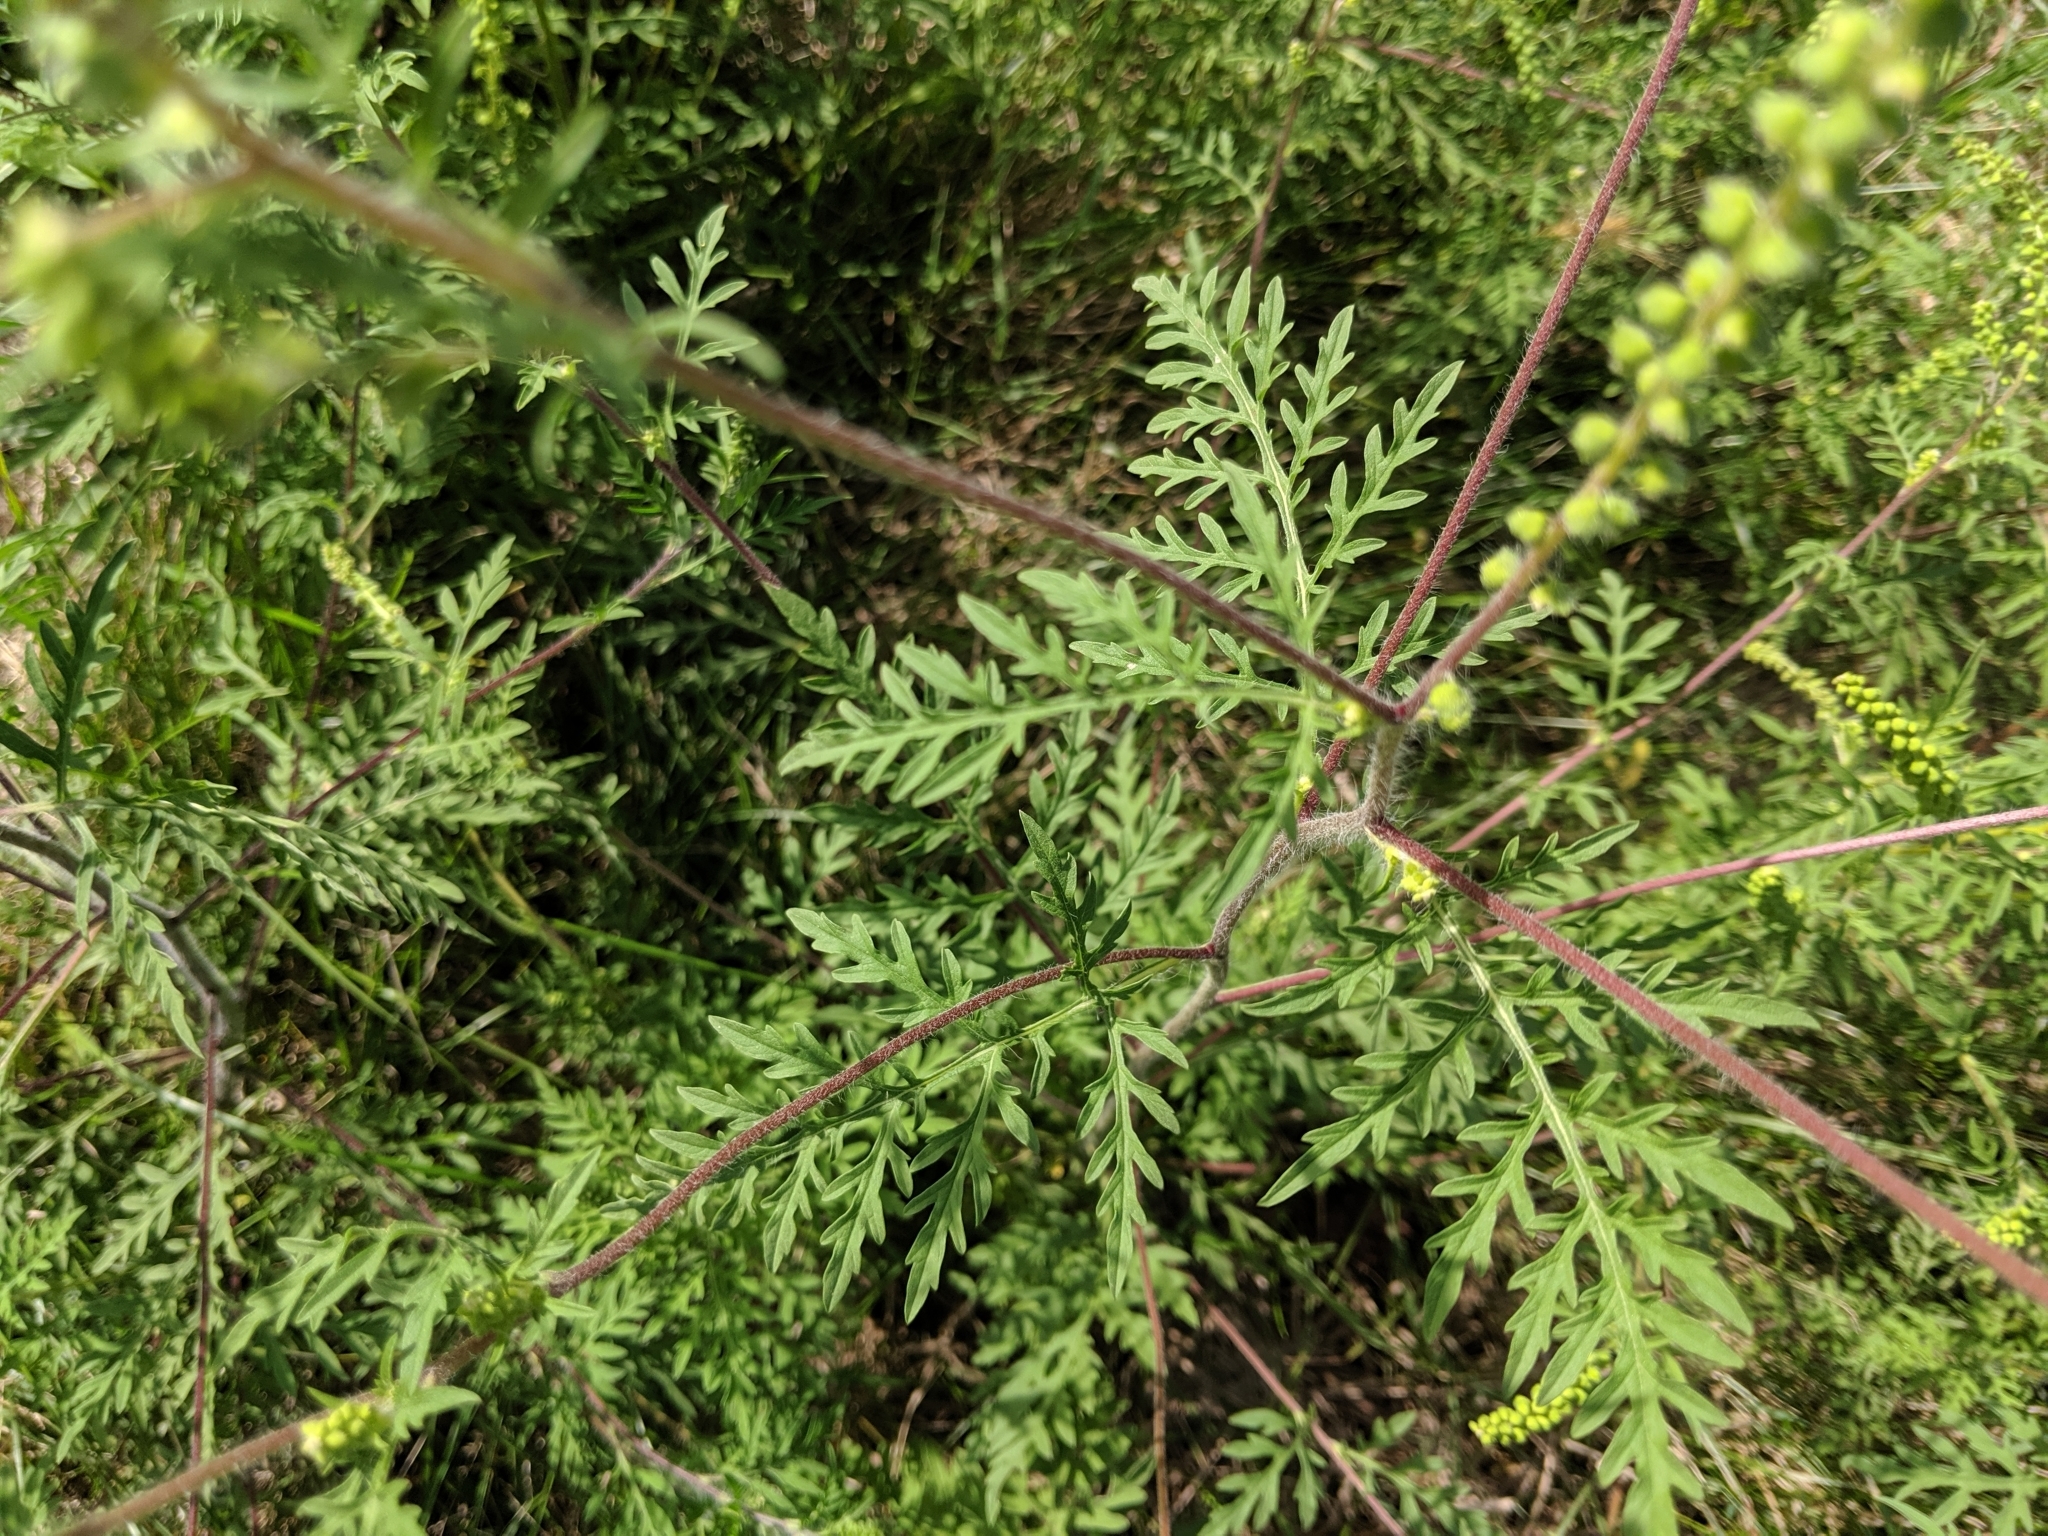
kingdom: Plantae
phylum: Tracheophyta
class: Magnoliopsida
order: Asterales
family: Asteraceae
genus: Ambrosia
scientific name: Ambrosia artemisiifolia
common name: Annual ragweed
